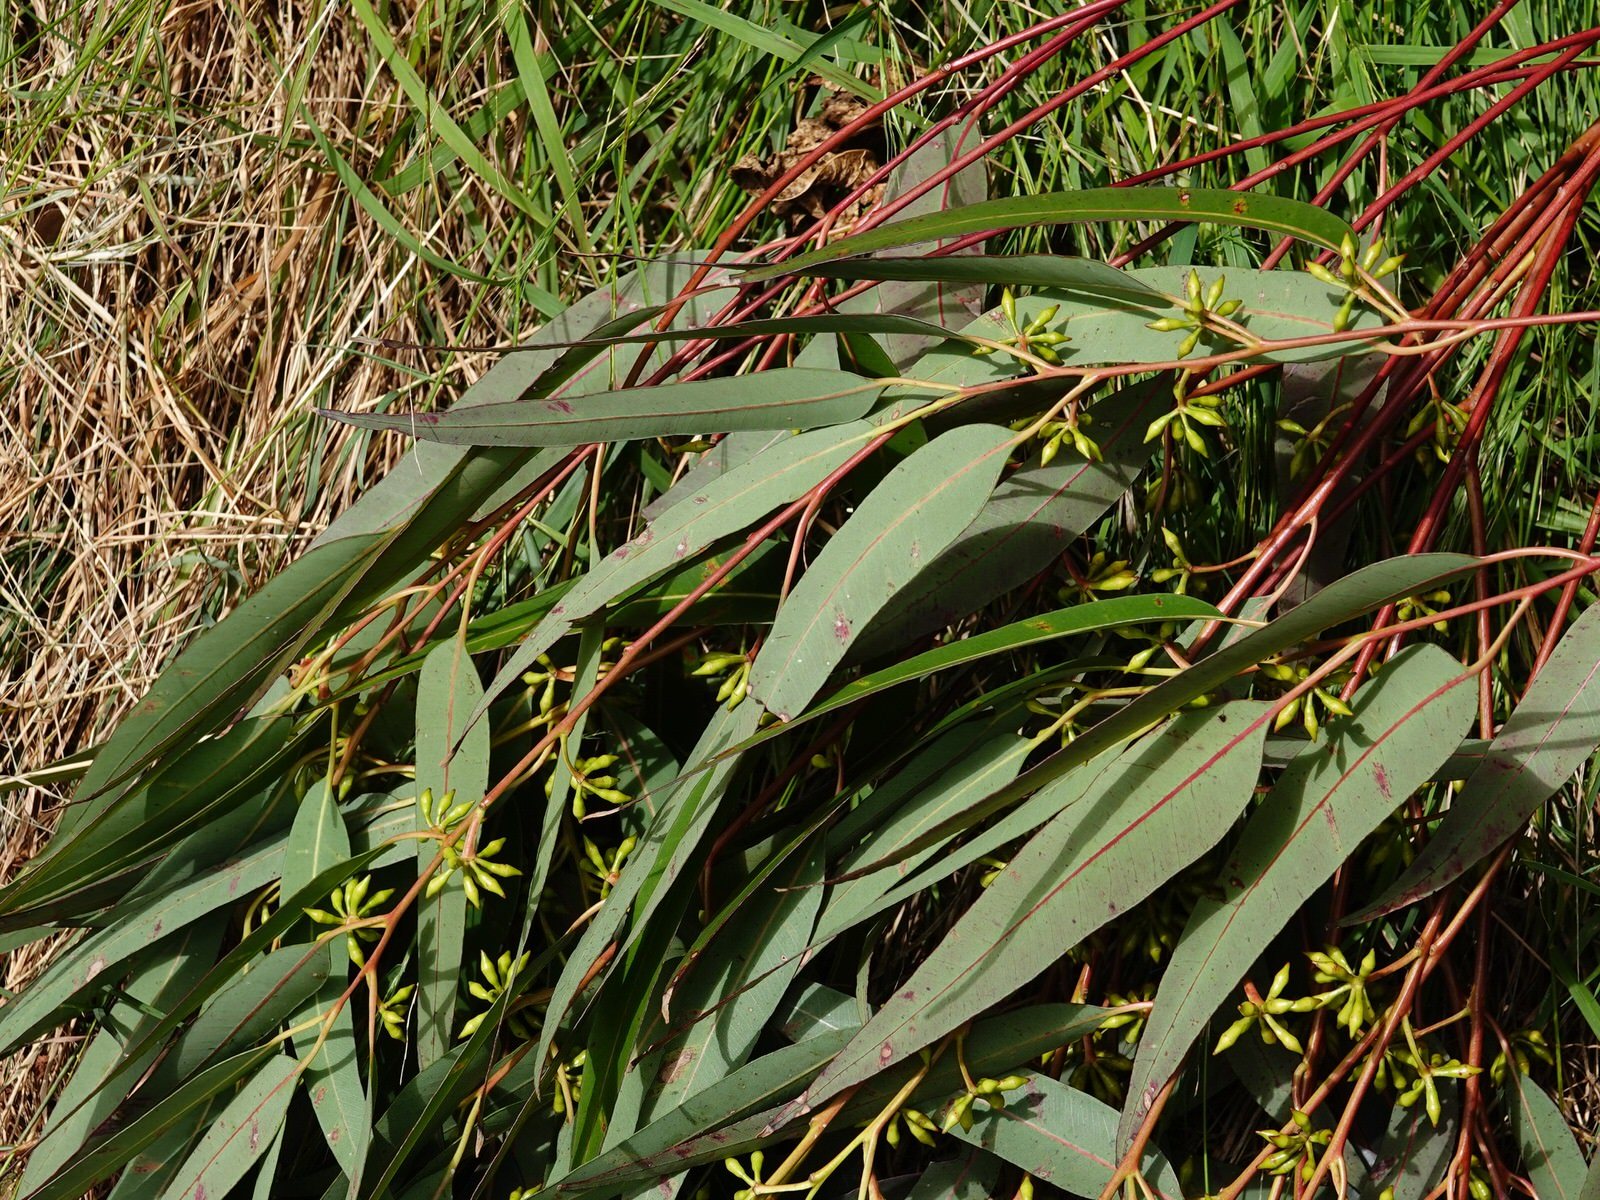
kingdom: Plantae
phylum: Tracheophyta
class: Magnoliopsida
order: Myrtales
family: Myrtaceae
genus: Eucalyptus
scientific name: Eucalyptus saligna
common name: Blue gum
